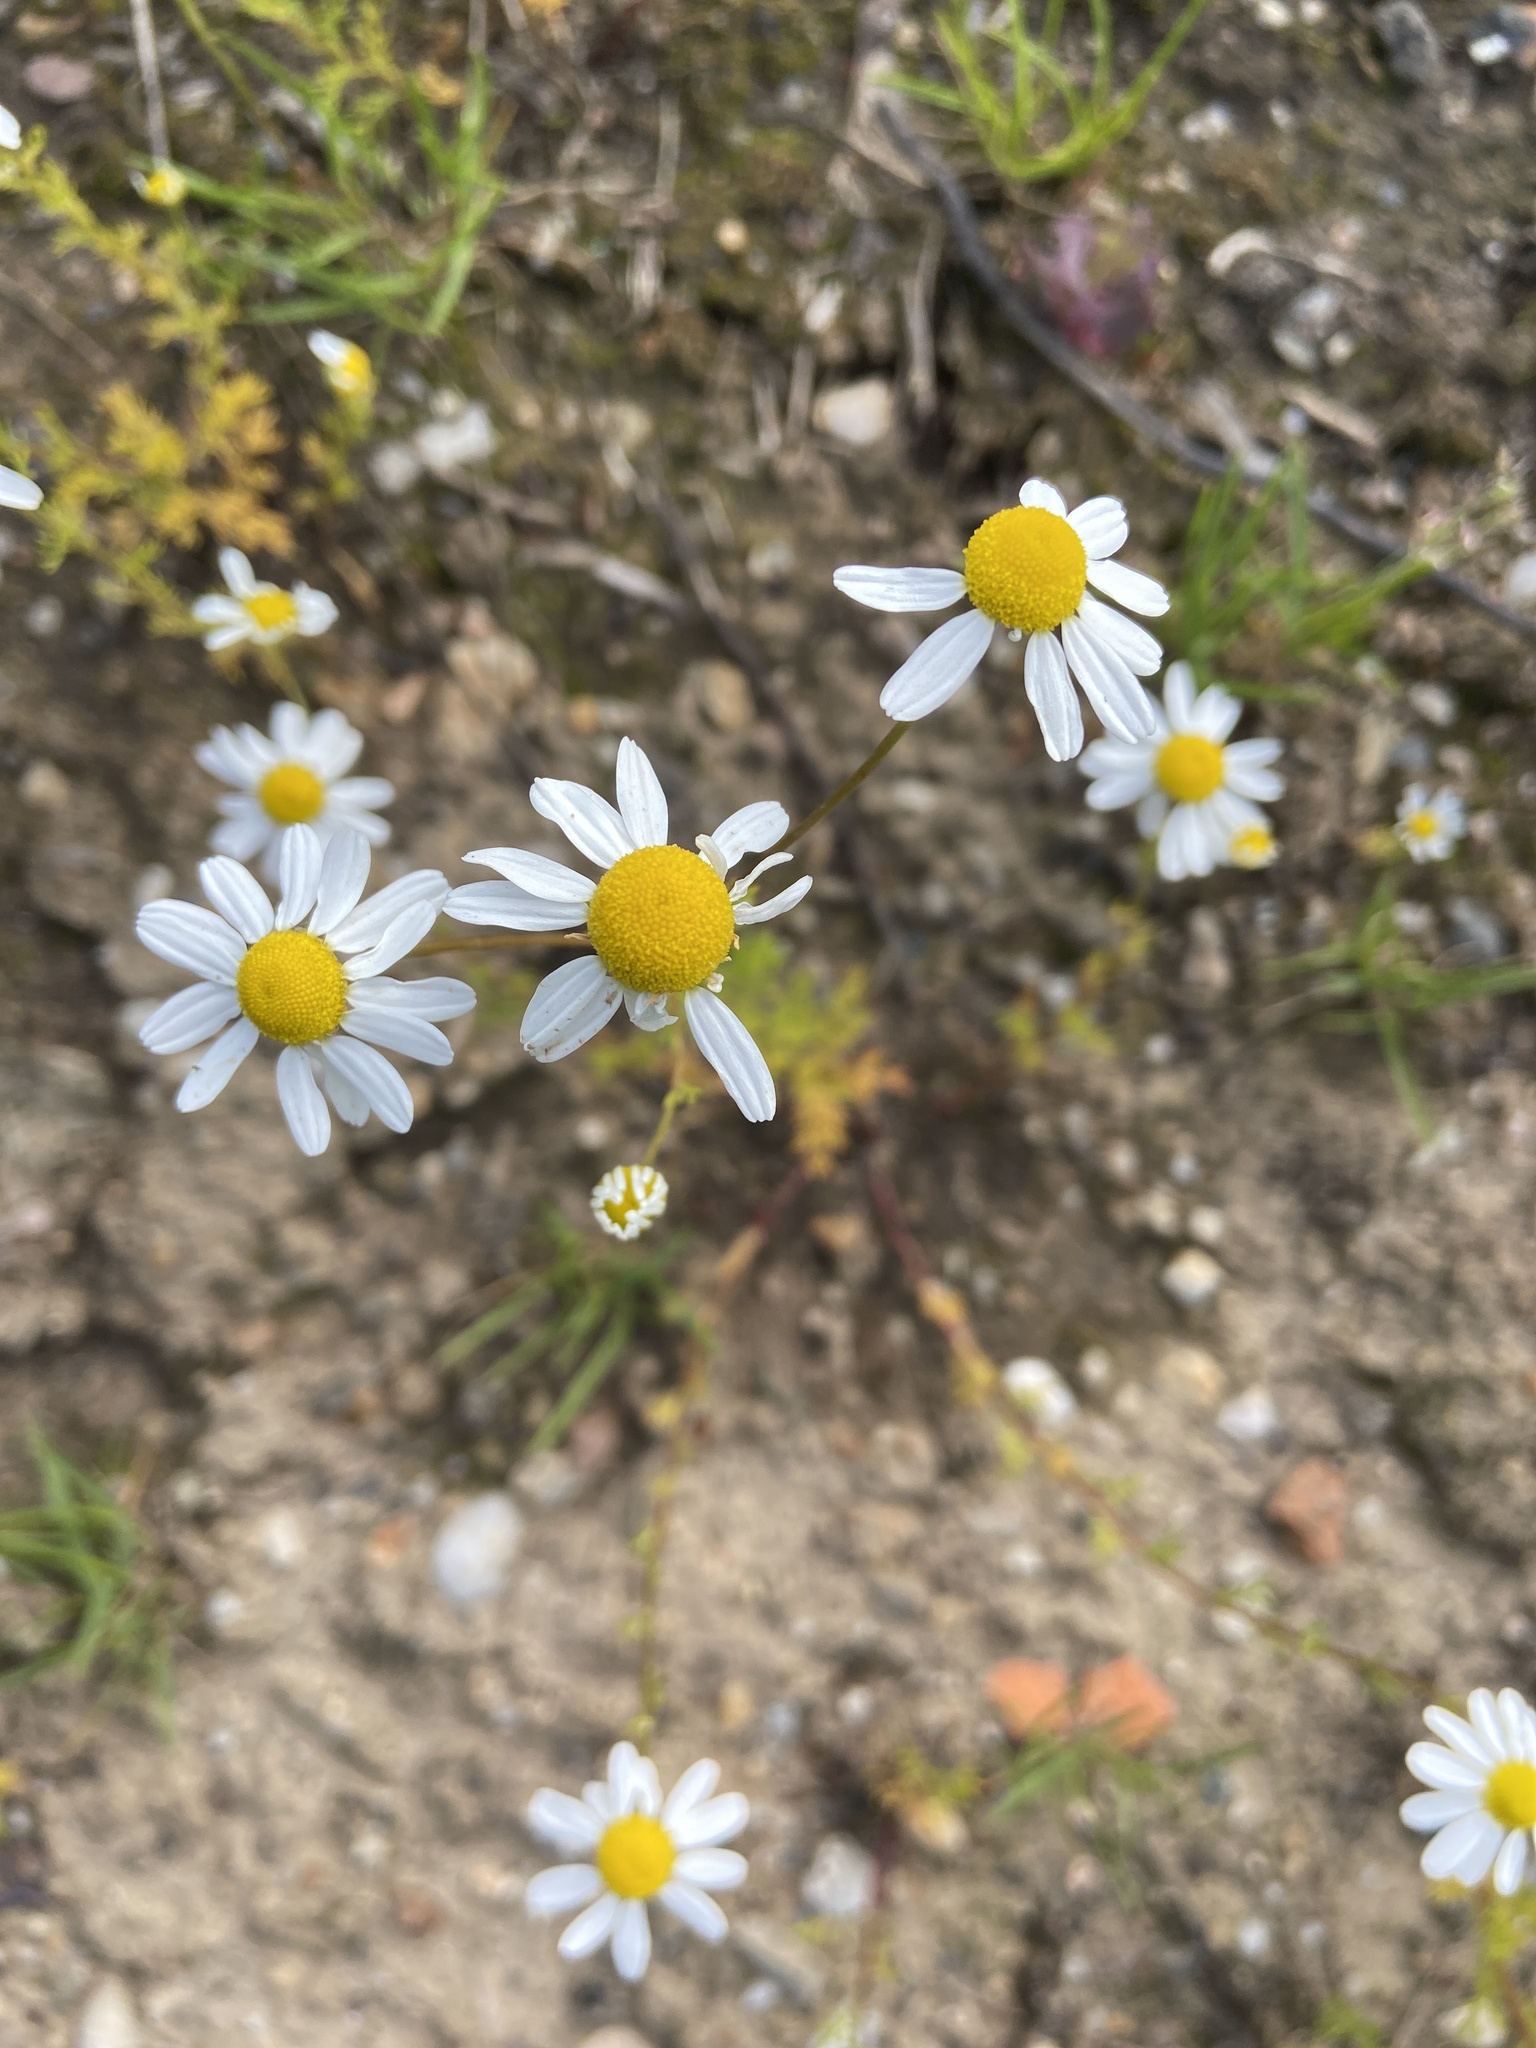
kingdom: Plantae
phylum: Tracheophyta
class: Magnoliopsida
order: Asterales
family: Asteraceae
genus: Matricaria
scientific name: Matricaria chamomilla
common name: Scented mayweed
